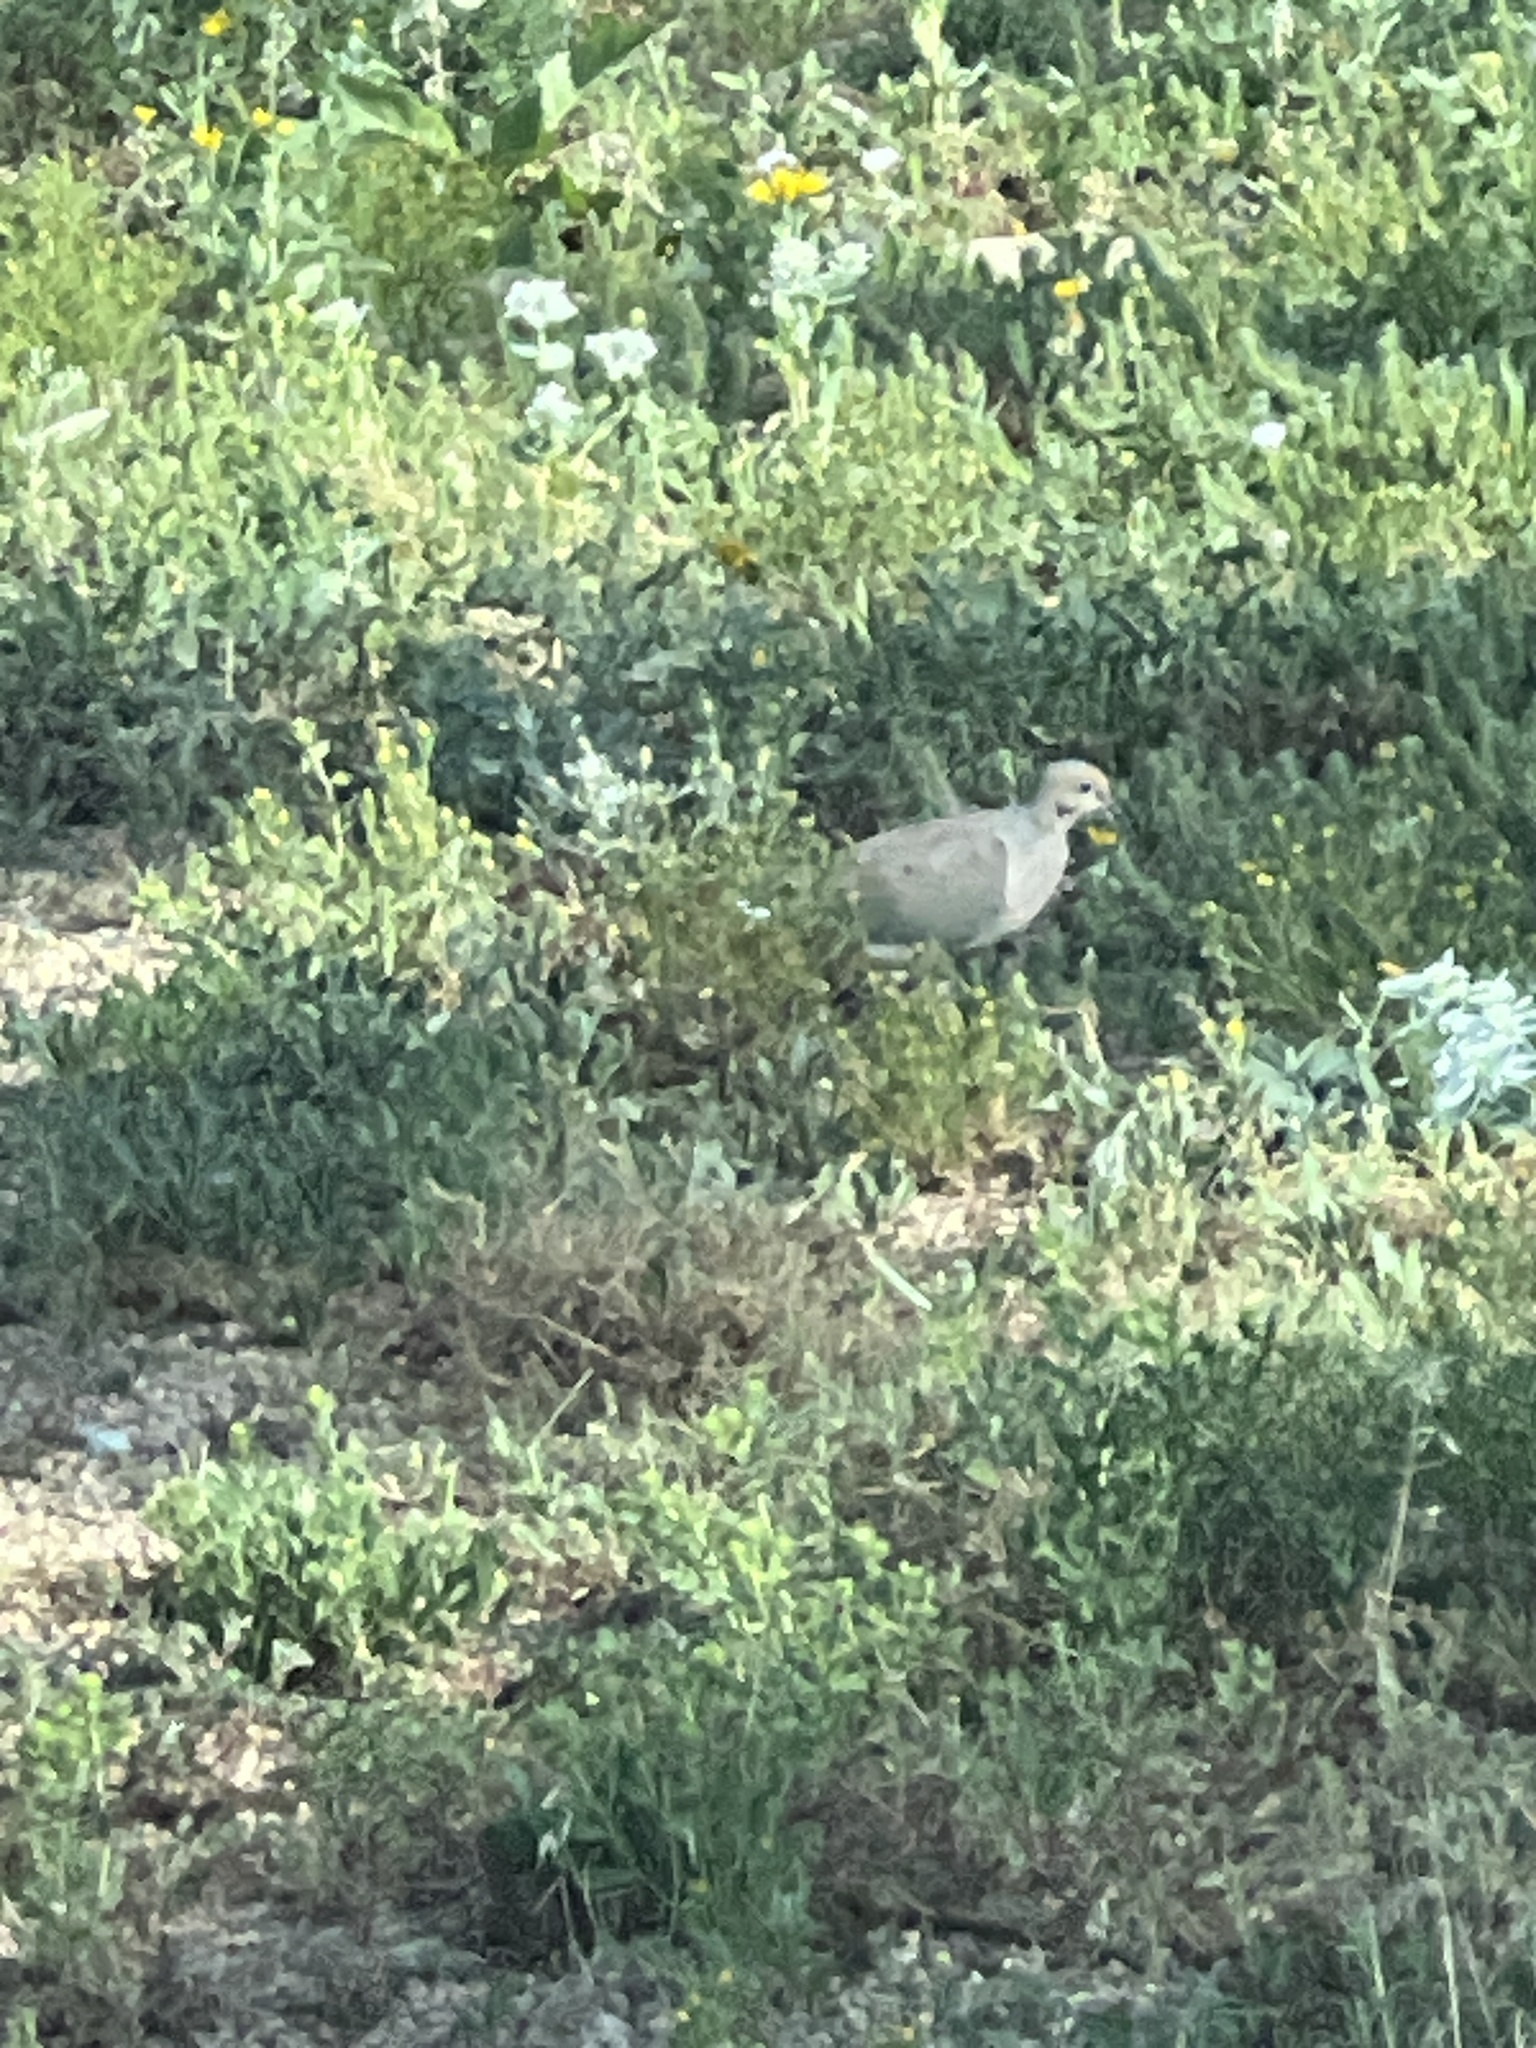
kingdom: Animalia
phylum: Chordata
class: Aves
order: Columbiformes
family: Columbidae
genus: Streptopelia
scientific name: Streptopelia decaocto
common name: Eurasian collared dove
